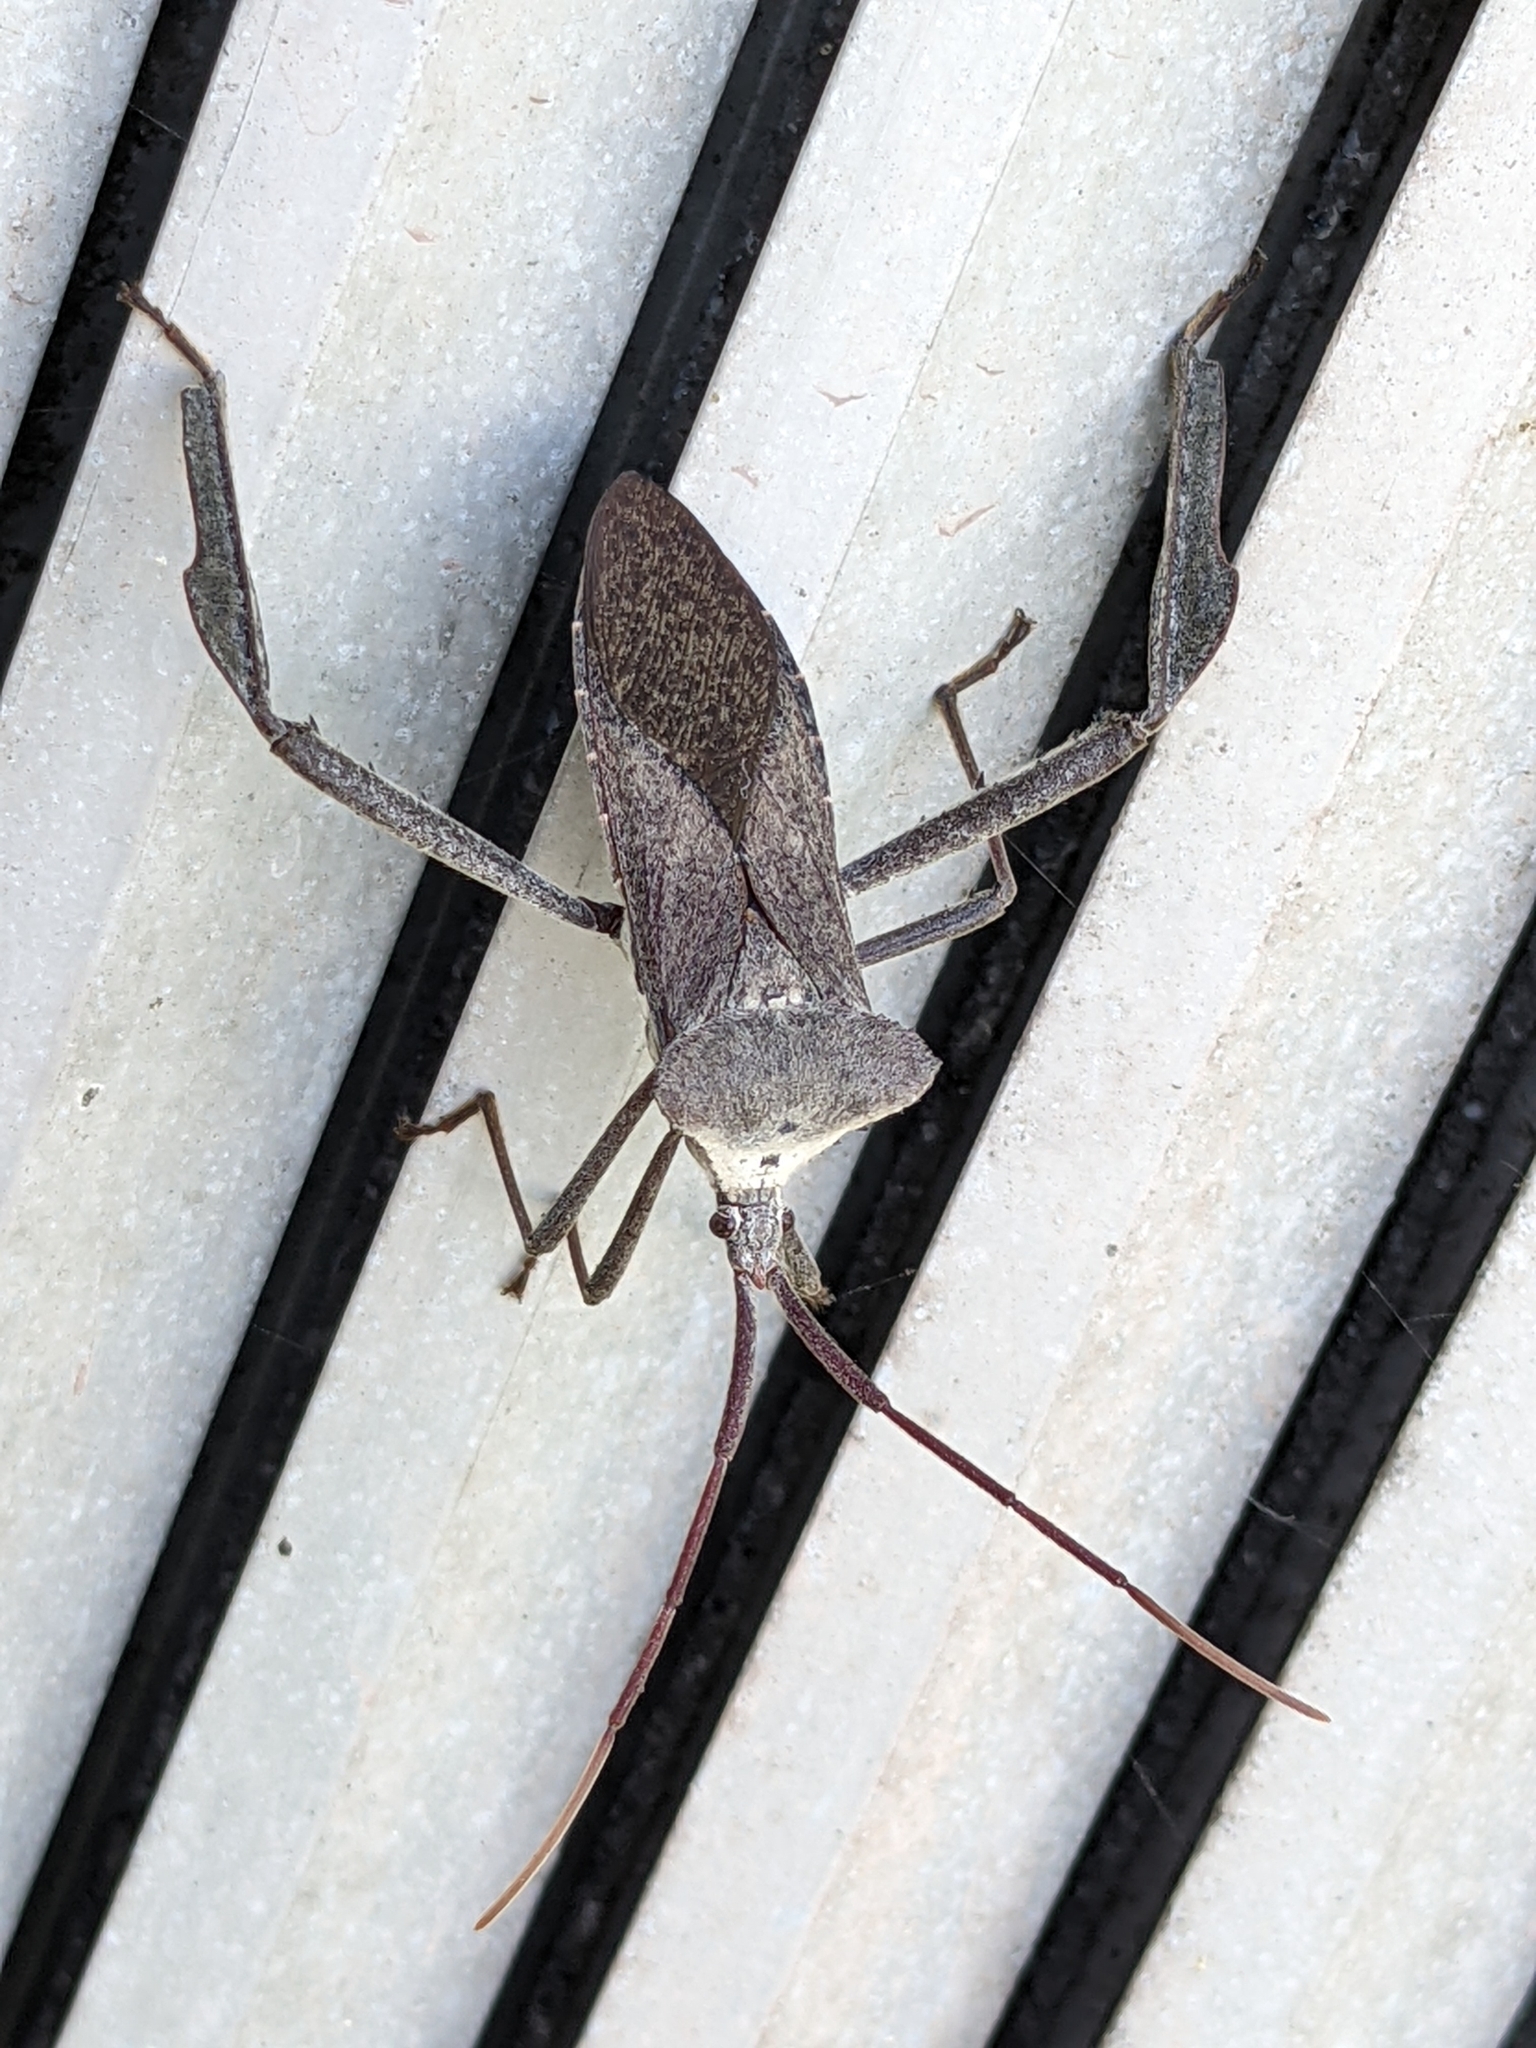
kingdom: Animalia
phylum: Arthropoda
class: Insecta
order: Hemiptera
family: Coreidae
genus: Acanthocephala
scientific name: Acanthocephala declivis
